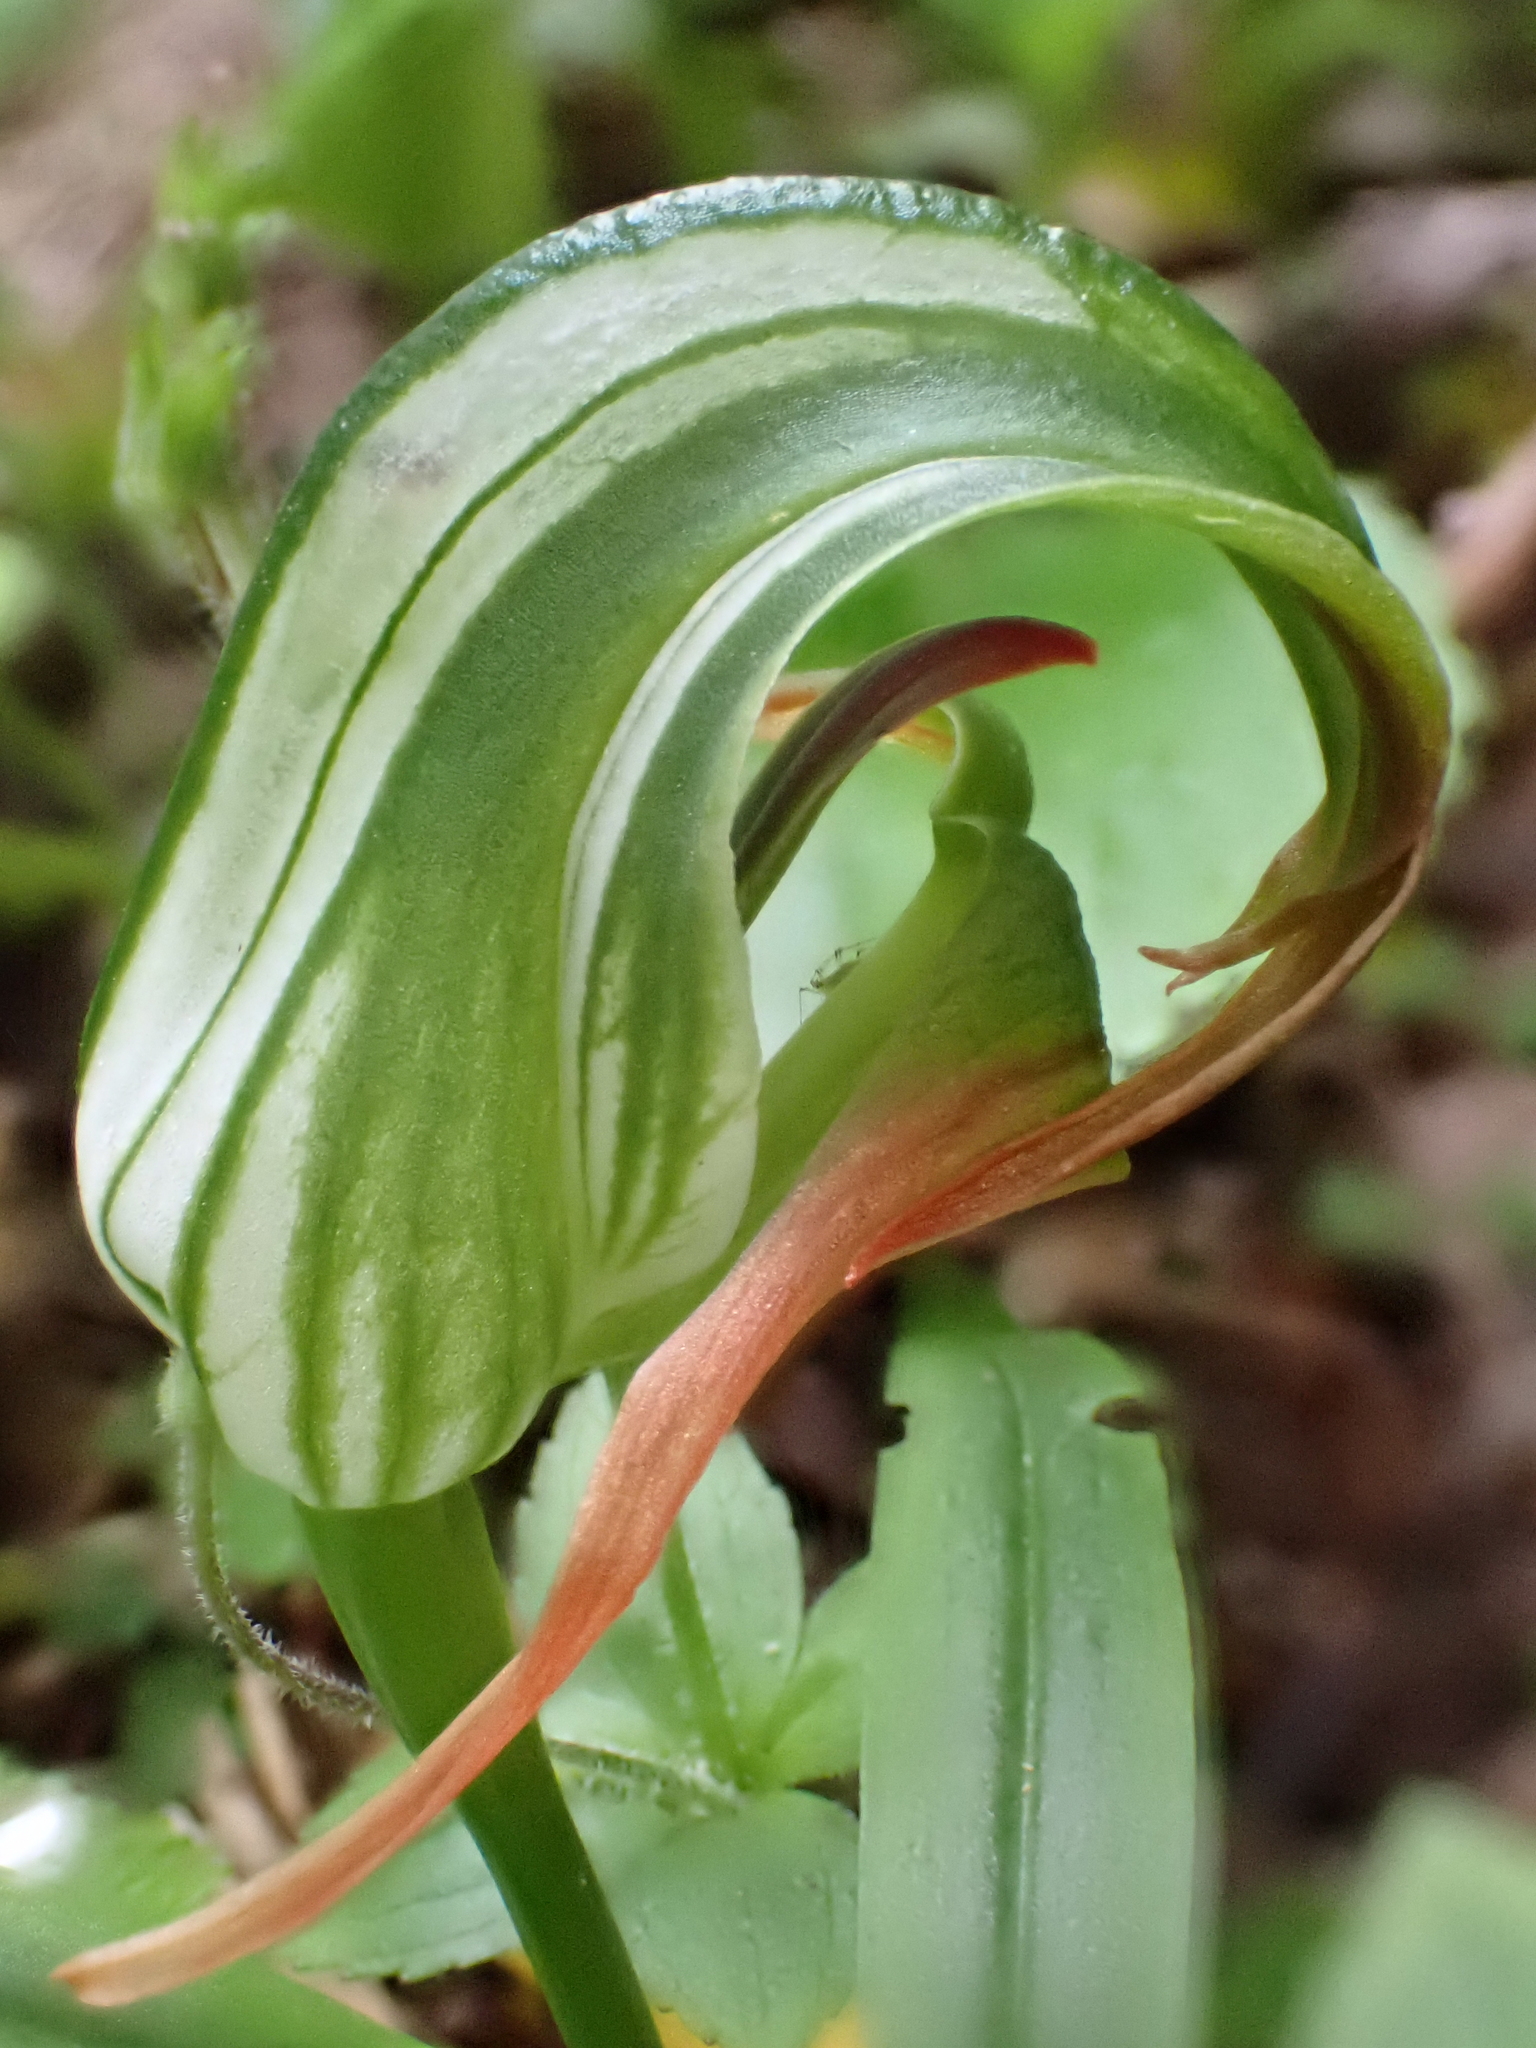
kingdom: Plantae
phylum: Tracheophyta
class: Liliopsida
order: Asparagales
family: Orchidaceae
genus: Pterostylis
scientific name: Pterostylis patens
